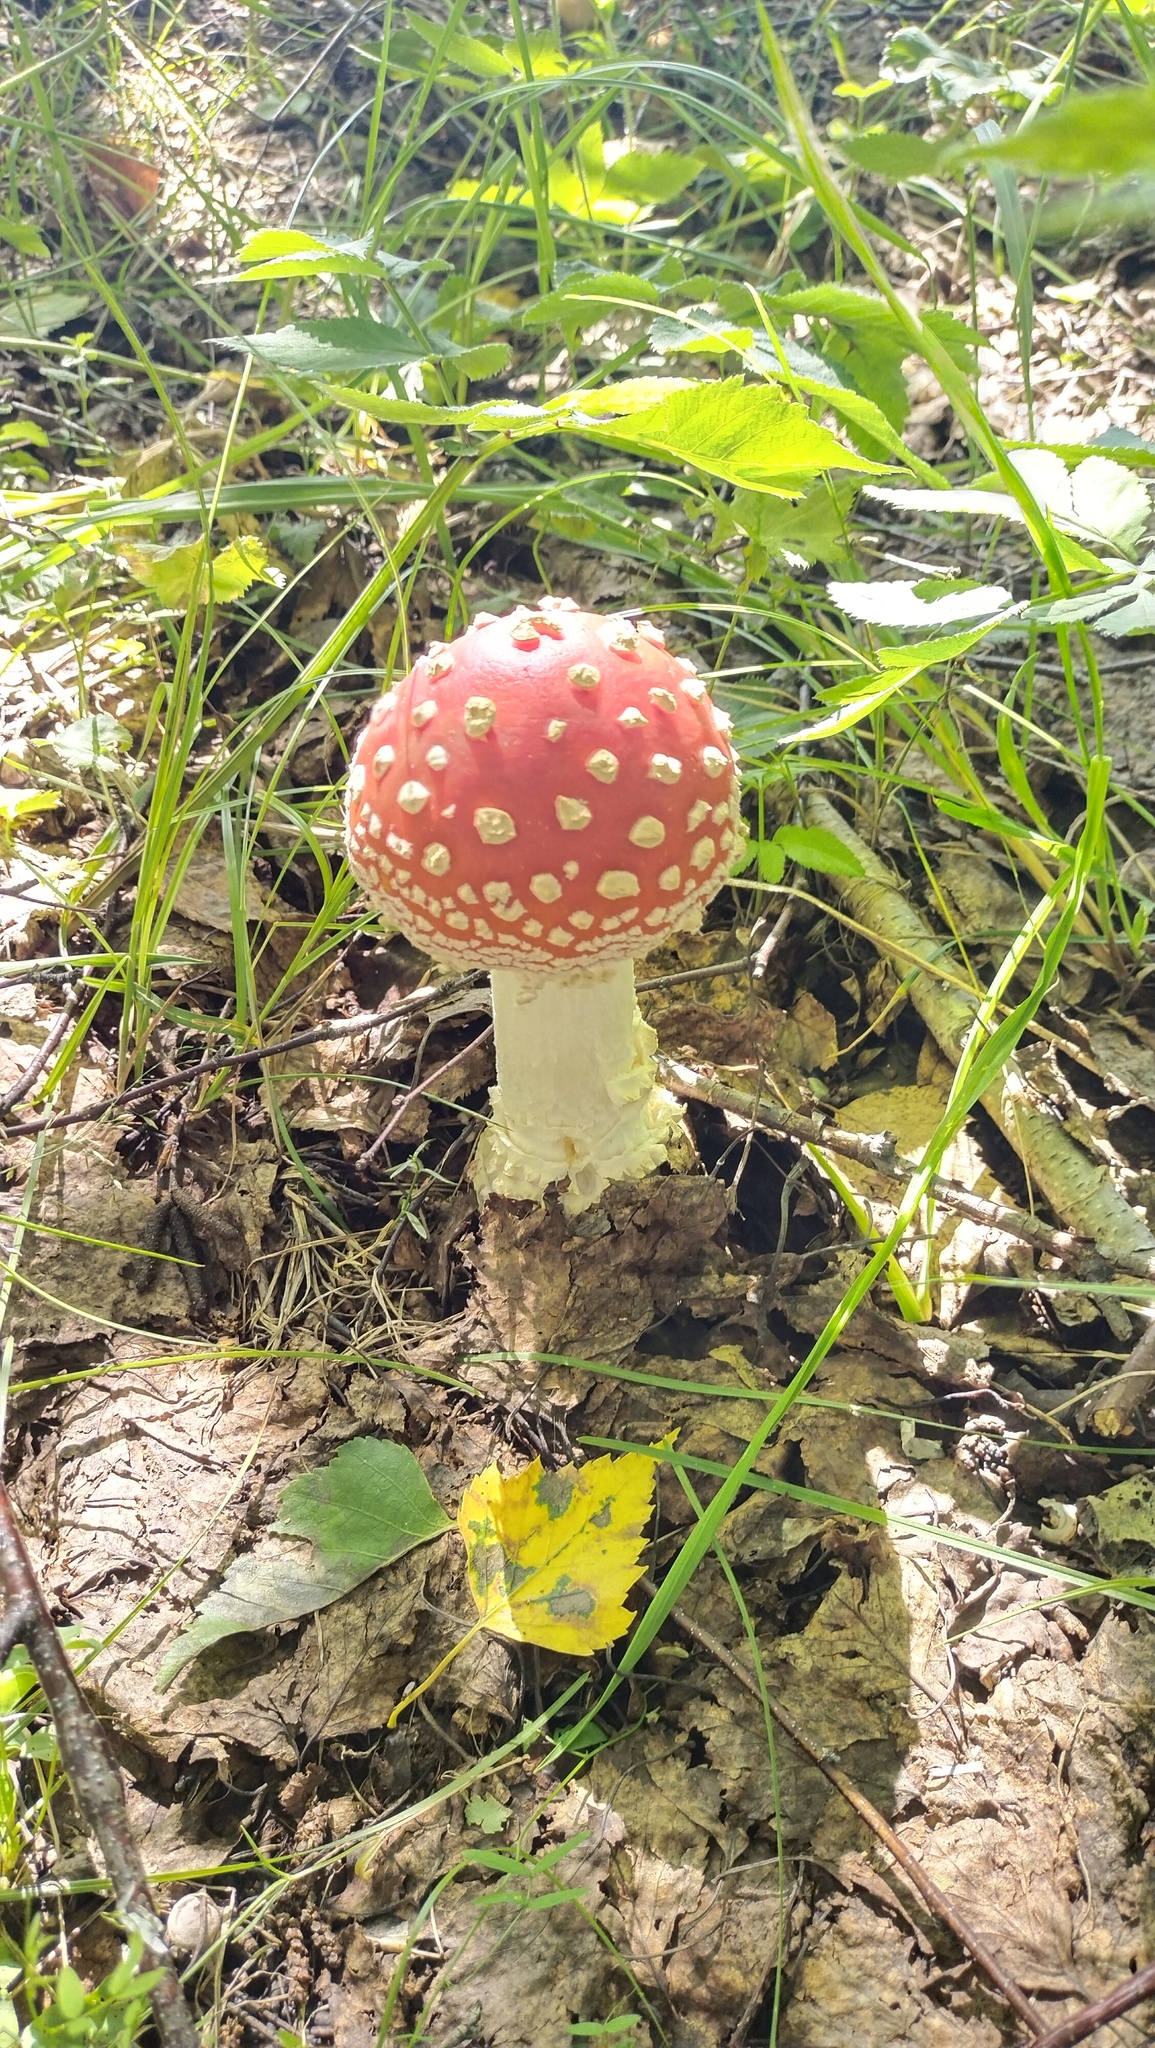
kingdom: Fungi
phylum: Basidiomycota
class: Agaricomycetes
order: Agaricales
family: Amanitaceae
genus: Amanita
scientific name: Amanita muscaria
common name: Fly agaric
